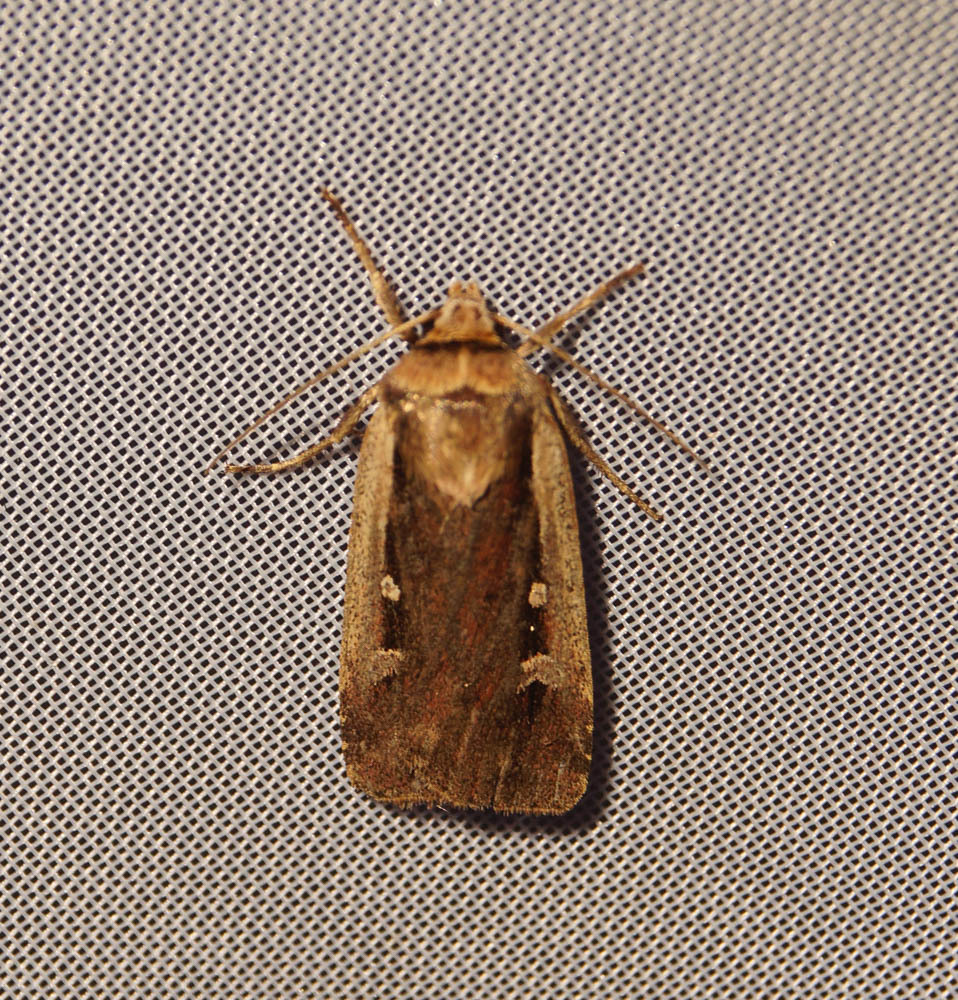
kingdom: Animalia
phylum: Arthropoda
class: Insecta
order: Lepidoptera
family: Noctuidae
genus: Ochropleura
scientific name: Ochropleura plecta
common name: Flame shoulder
